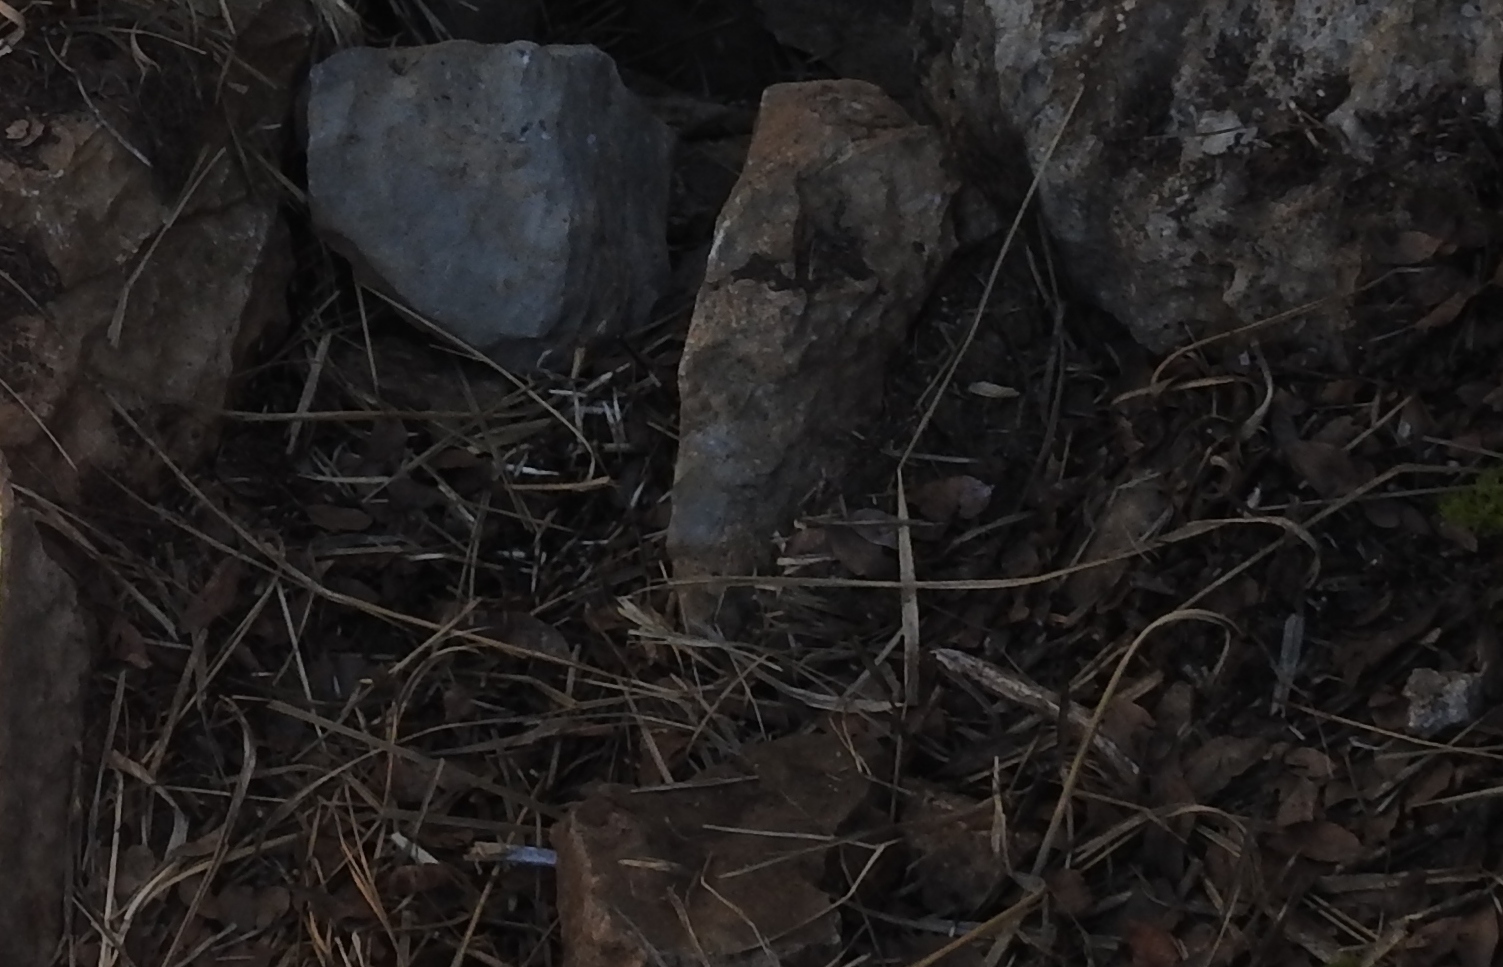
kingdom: Animalia
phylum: Chordata
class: Mammalia
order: Rodentia
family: Hystricidae
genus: Hystrix
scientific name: Hystrix cristata
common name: Crested porcupine
